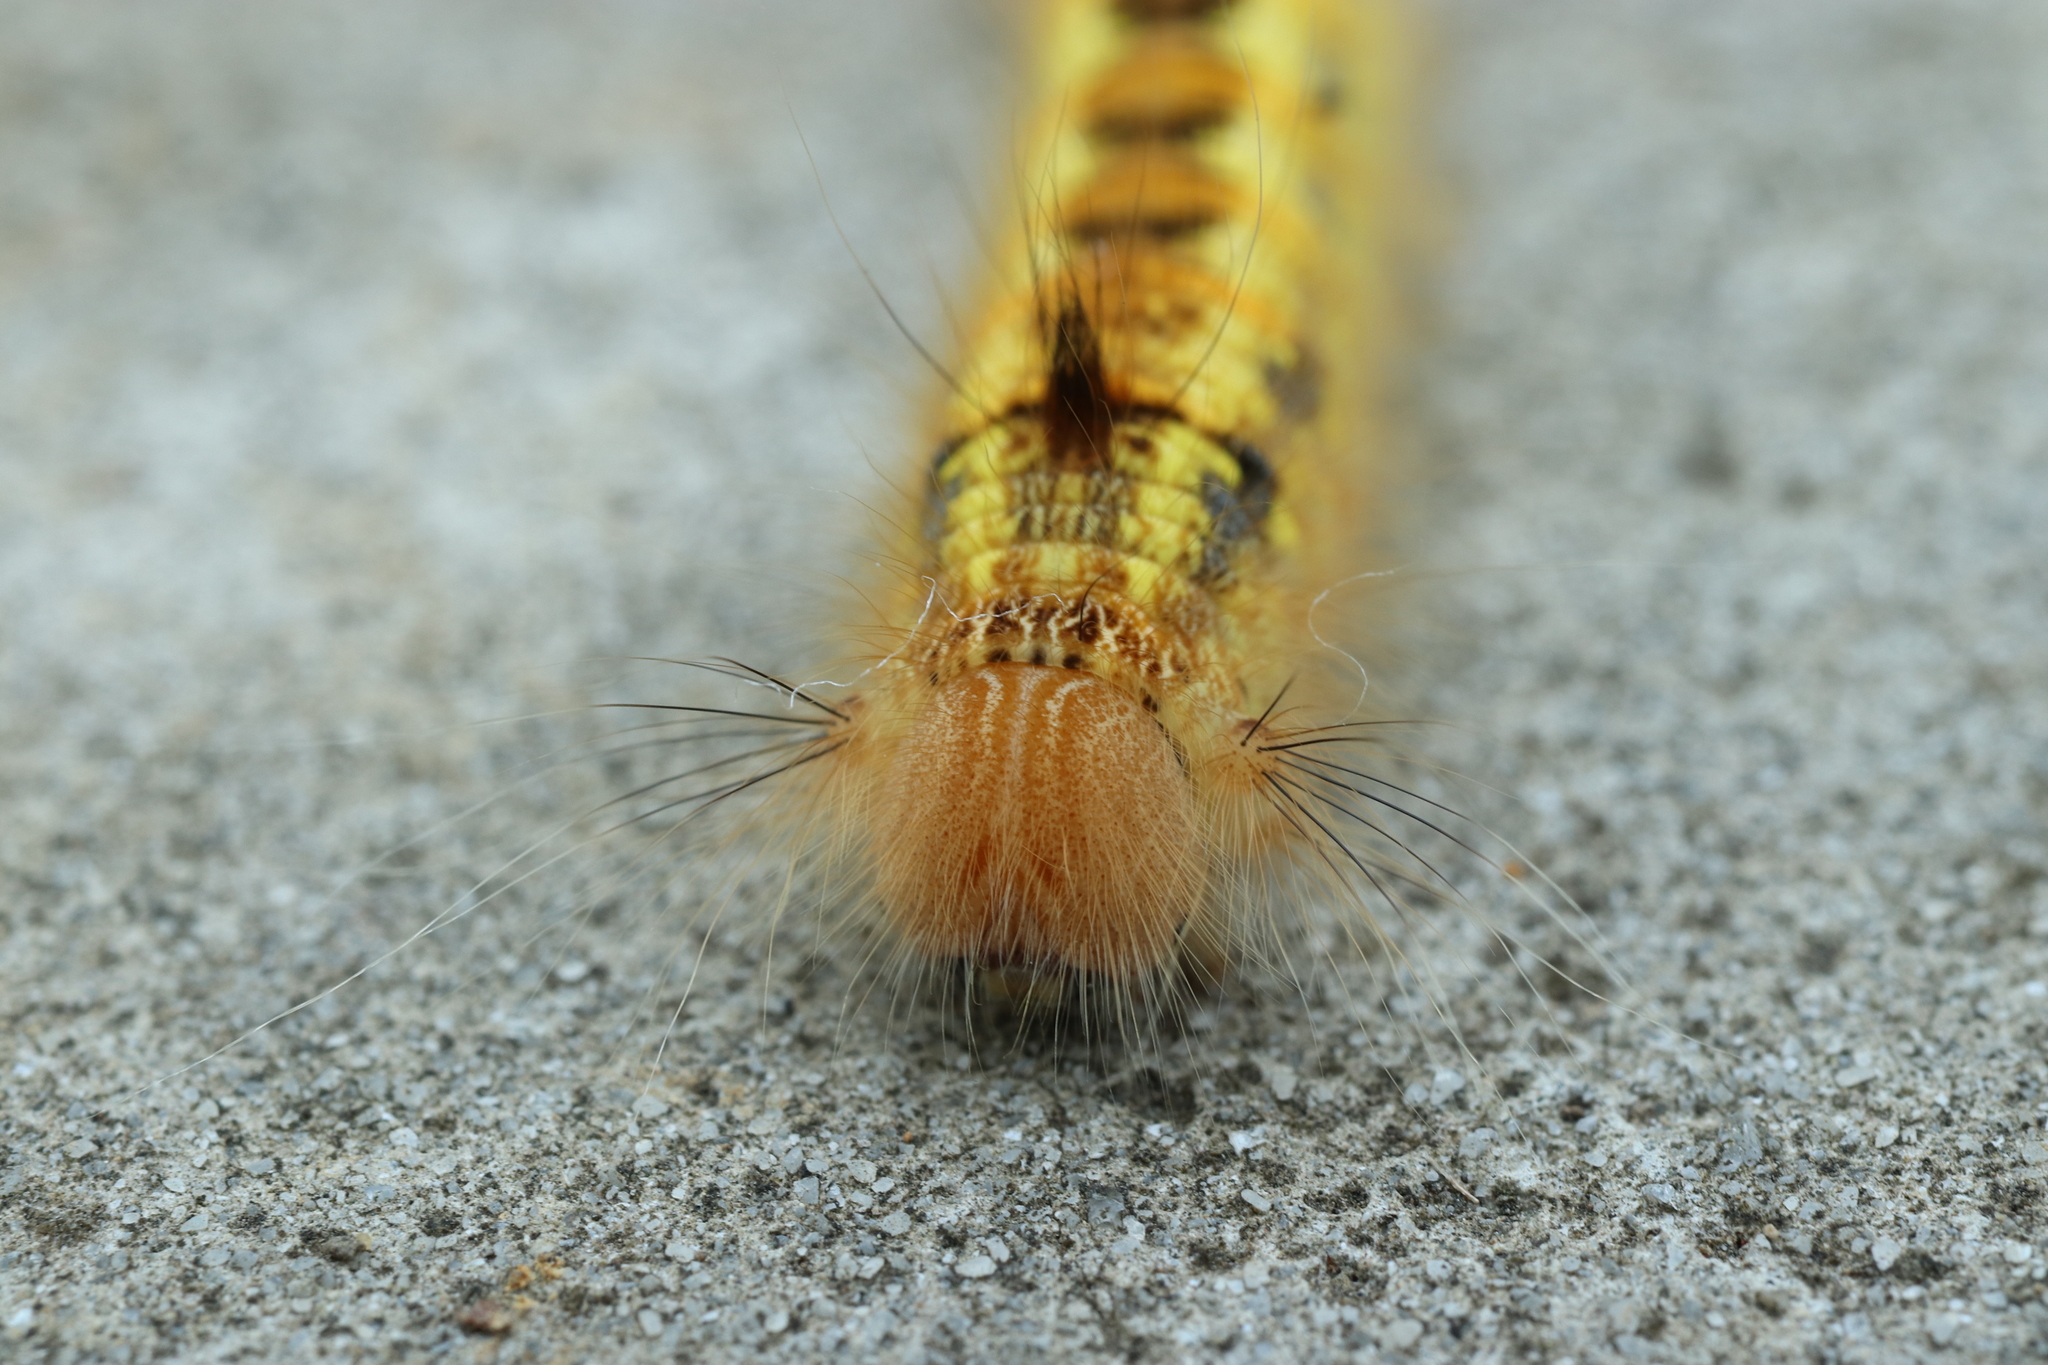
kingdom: Animalia
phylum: Arthropoda
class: Insecta
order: Lepidoptera
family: Lasiocampidae
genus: Euthrix
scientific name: Euthrix albomaculata
